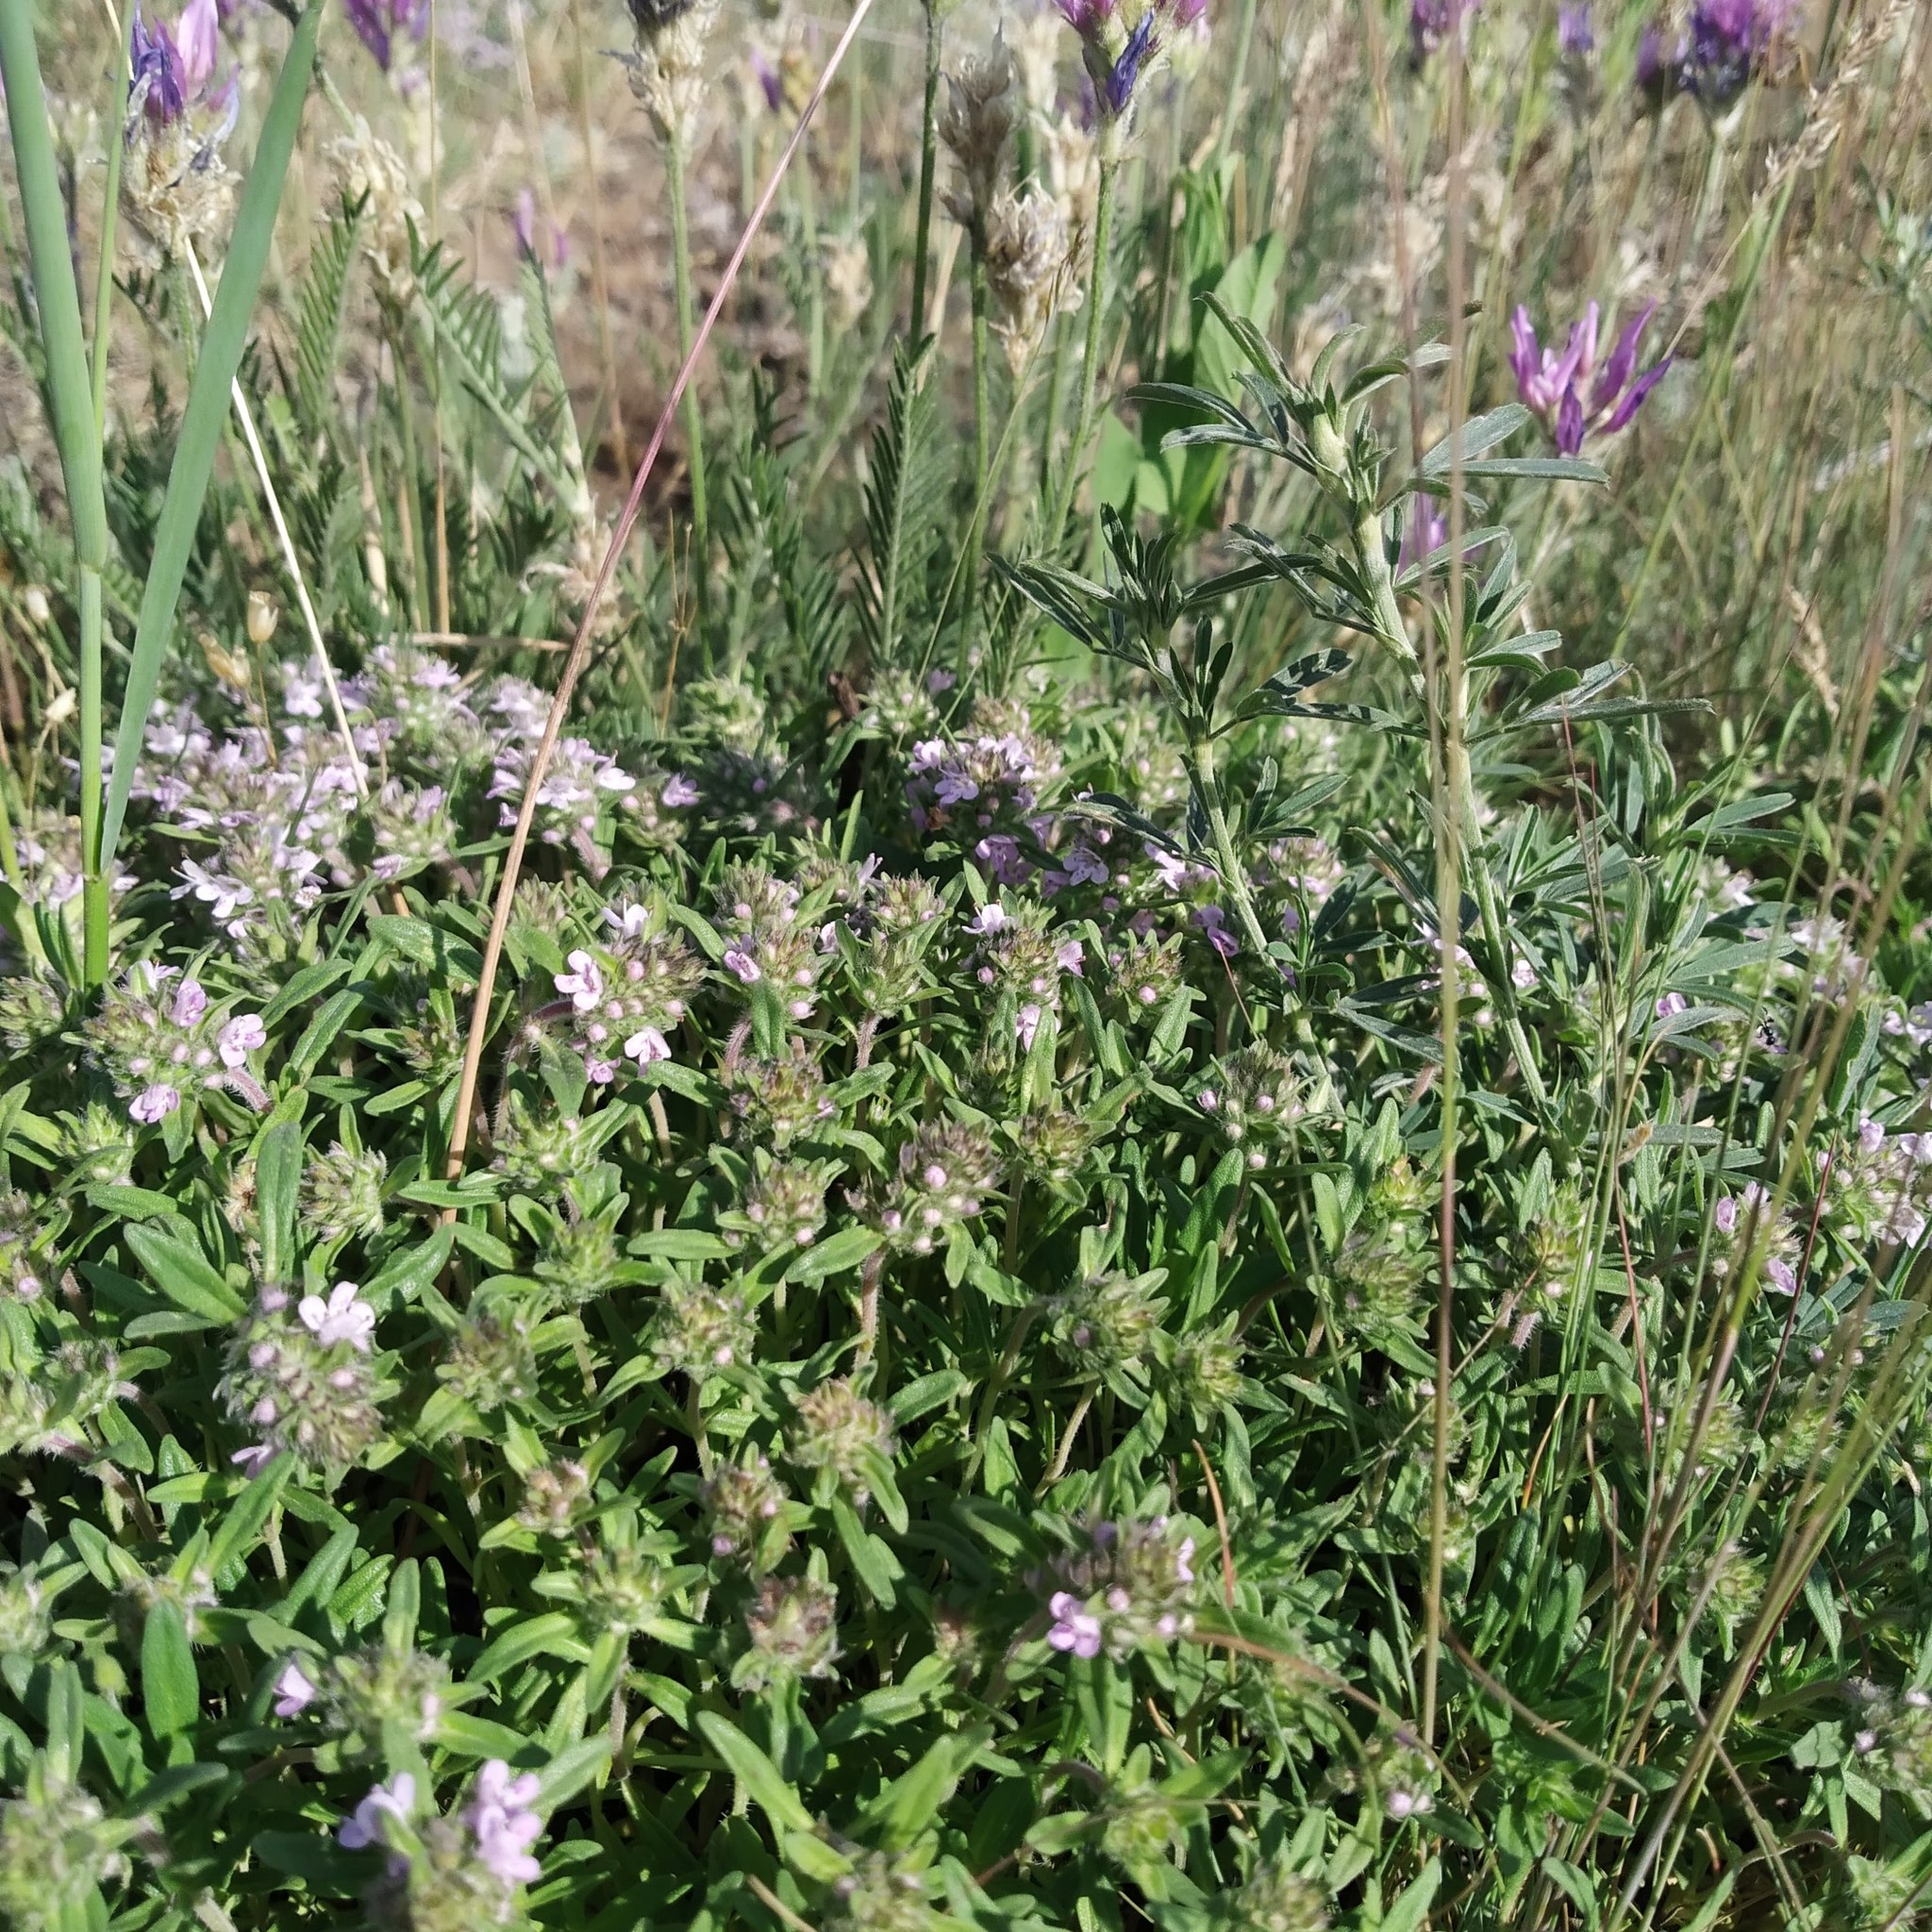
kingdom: Plantae
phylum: Tracheophyta
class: Magnoliopsida
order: Lamiales
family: Lamiaceae
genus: Thymus
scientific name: Thymus dimorphus
